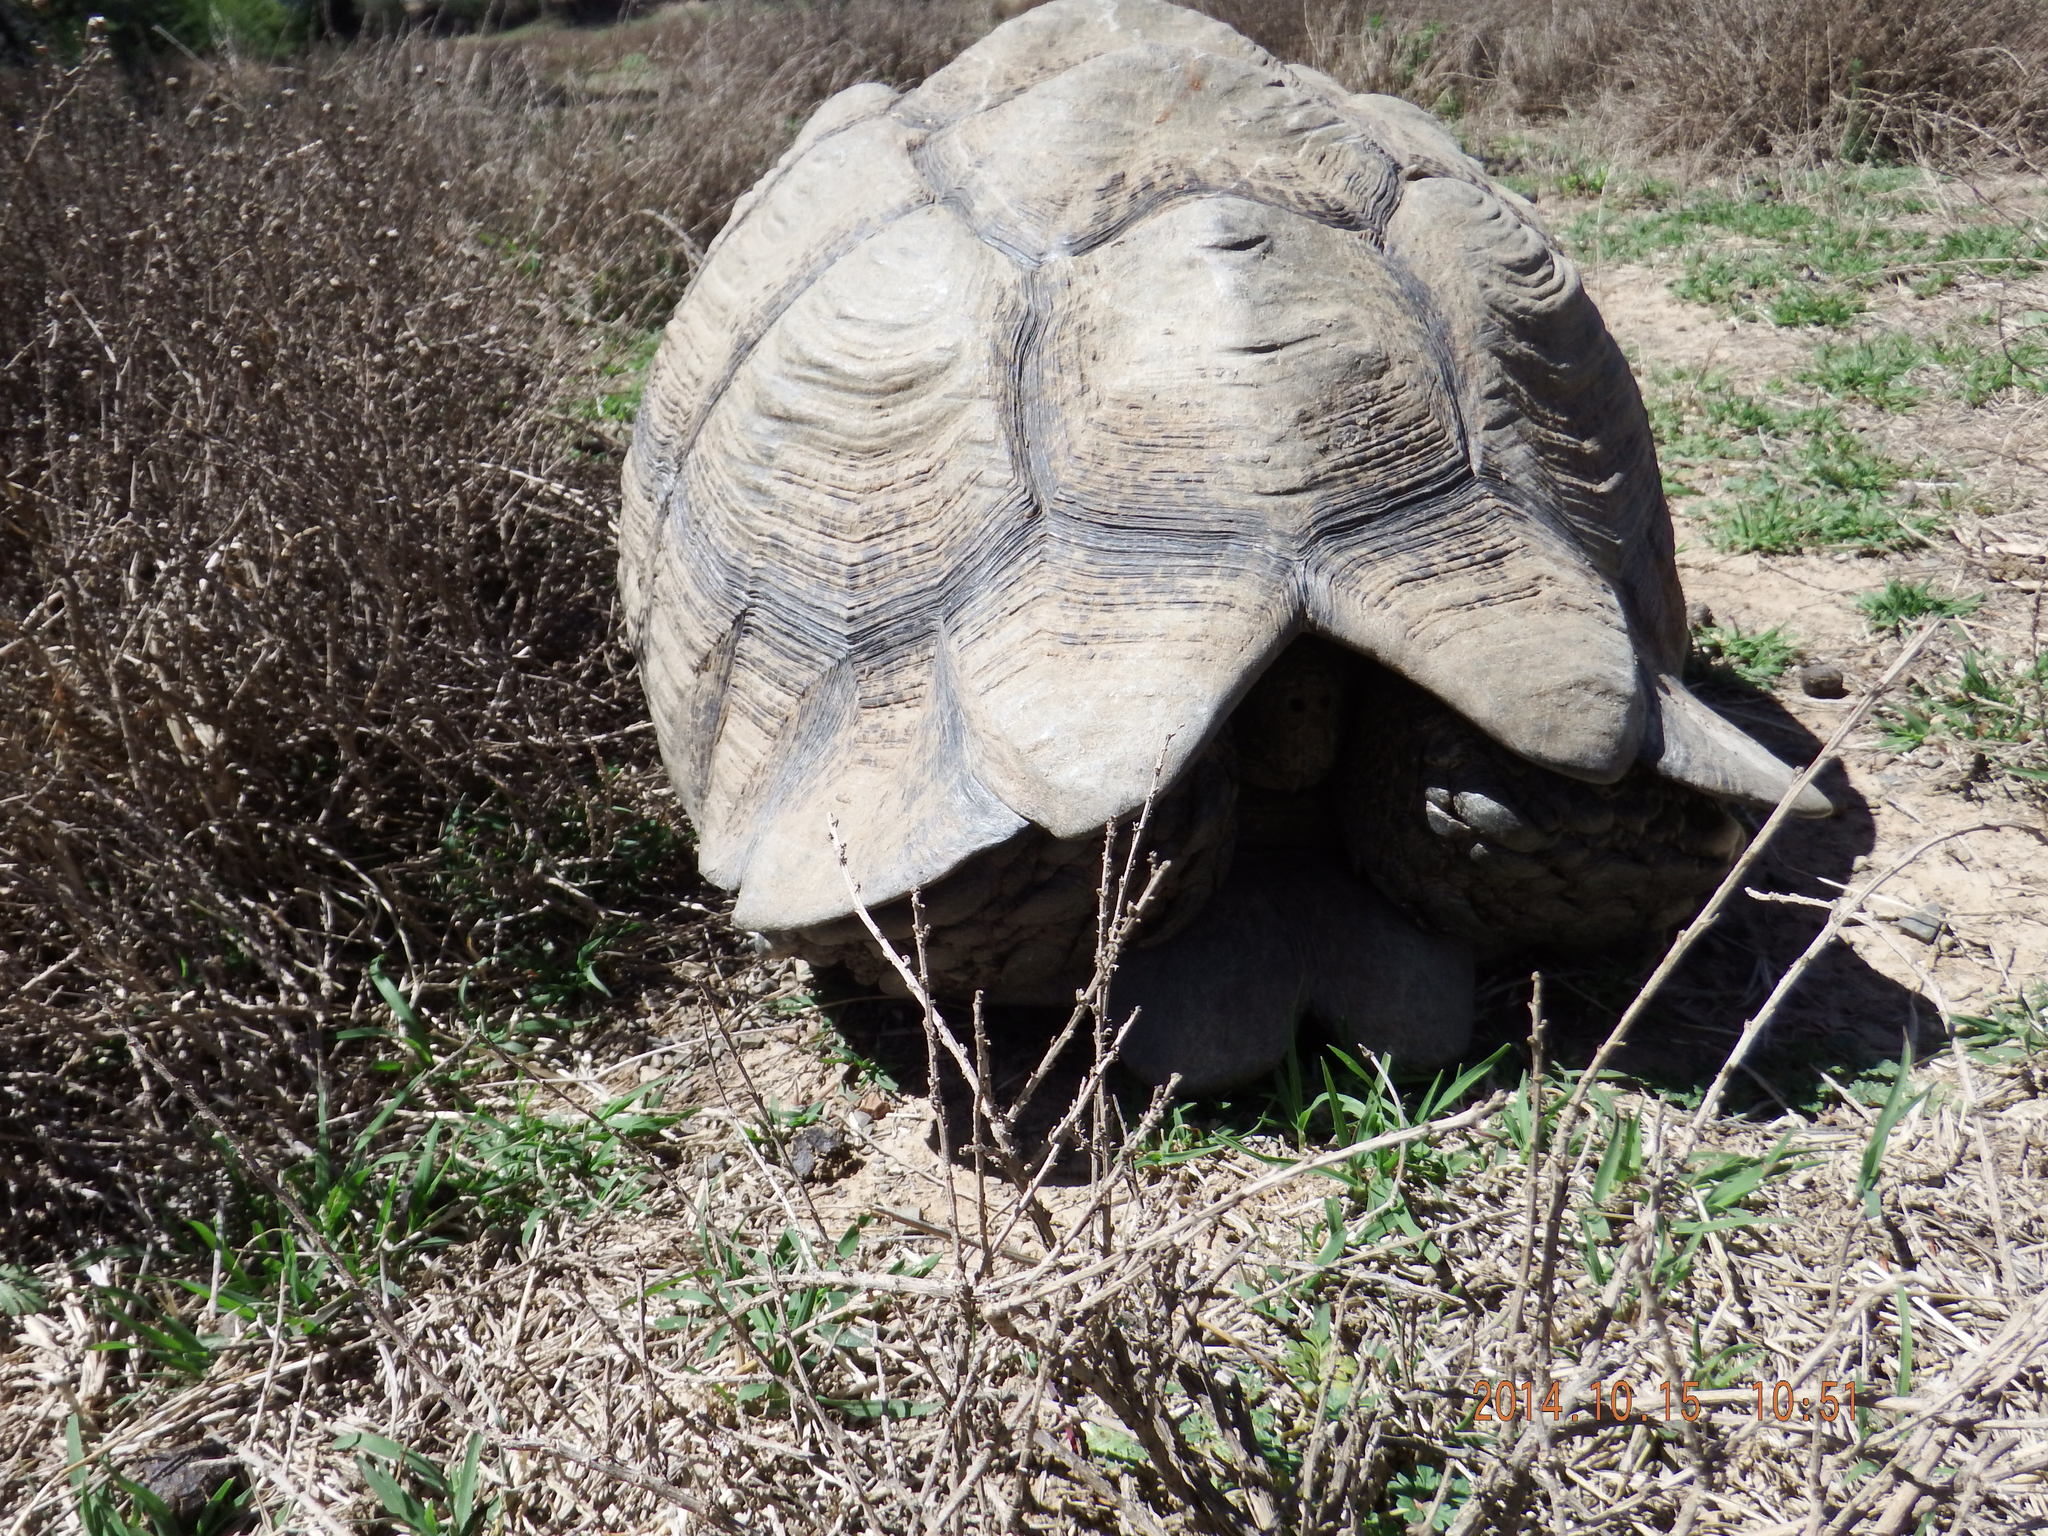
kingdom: Animalia
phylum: Chordata
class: Testudines
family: Testudinidae
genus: Stigmochelys
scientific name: Stigmochelys pardalis
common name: Leopard tortoise
